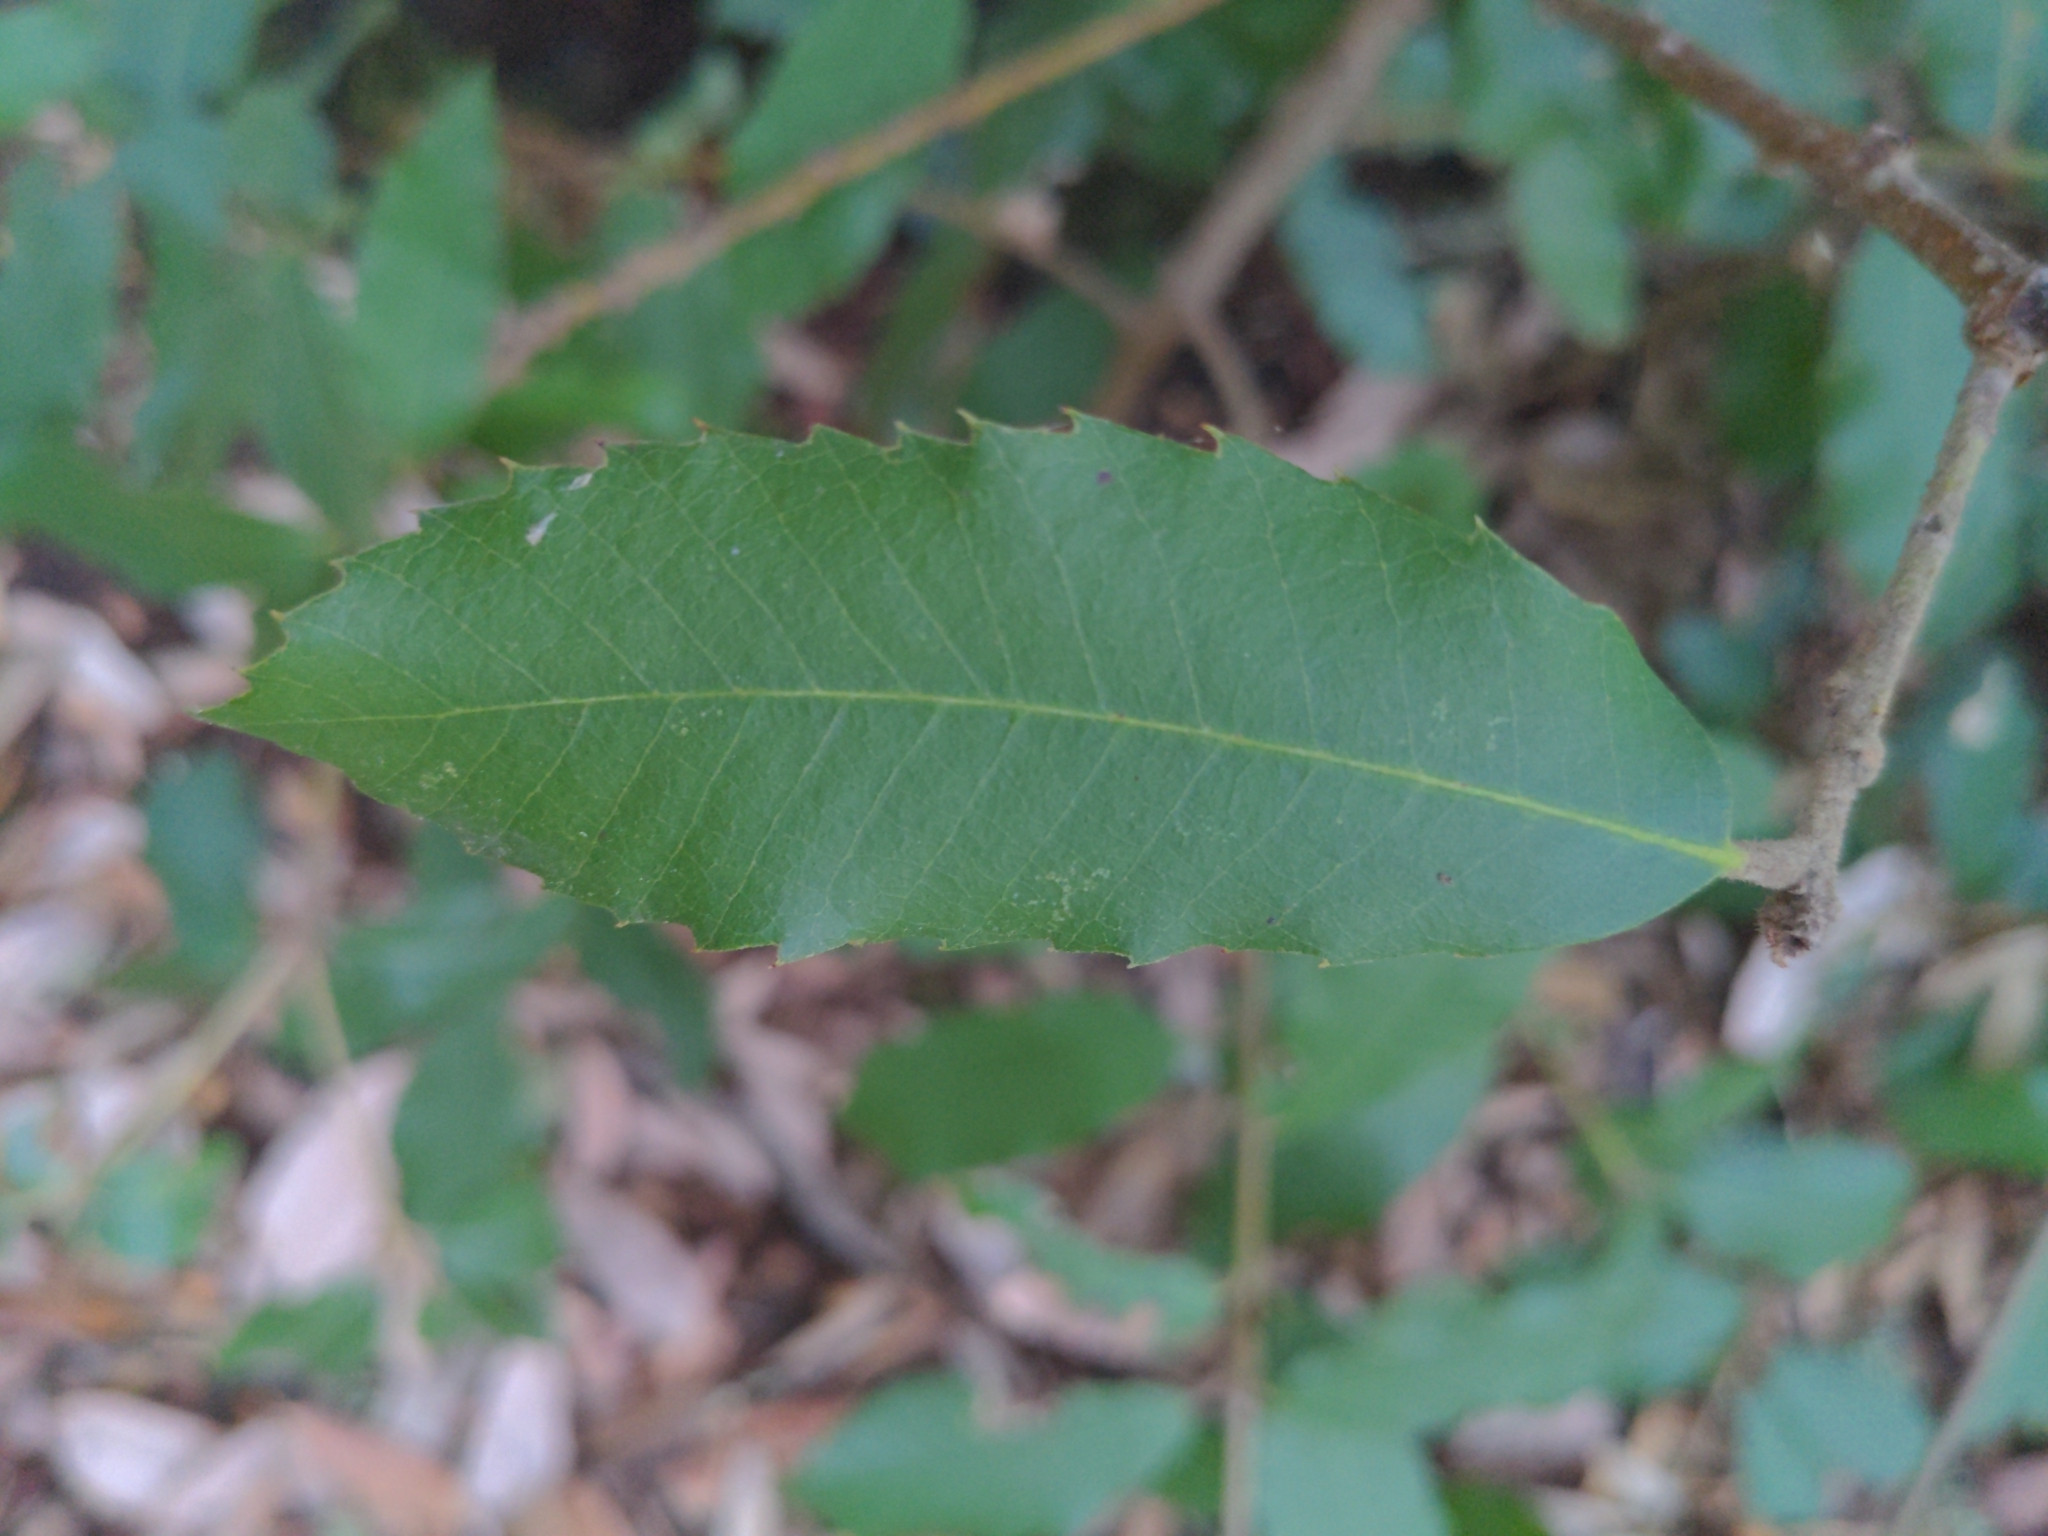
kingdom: Plantae
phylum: Tracheophyta
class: Magnoliopsida
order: Fagales
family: Fagaceae
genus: Notholithocarpus
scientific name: Notholithocarpus densiflorus
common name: Tan bark oak
